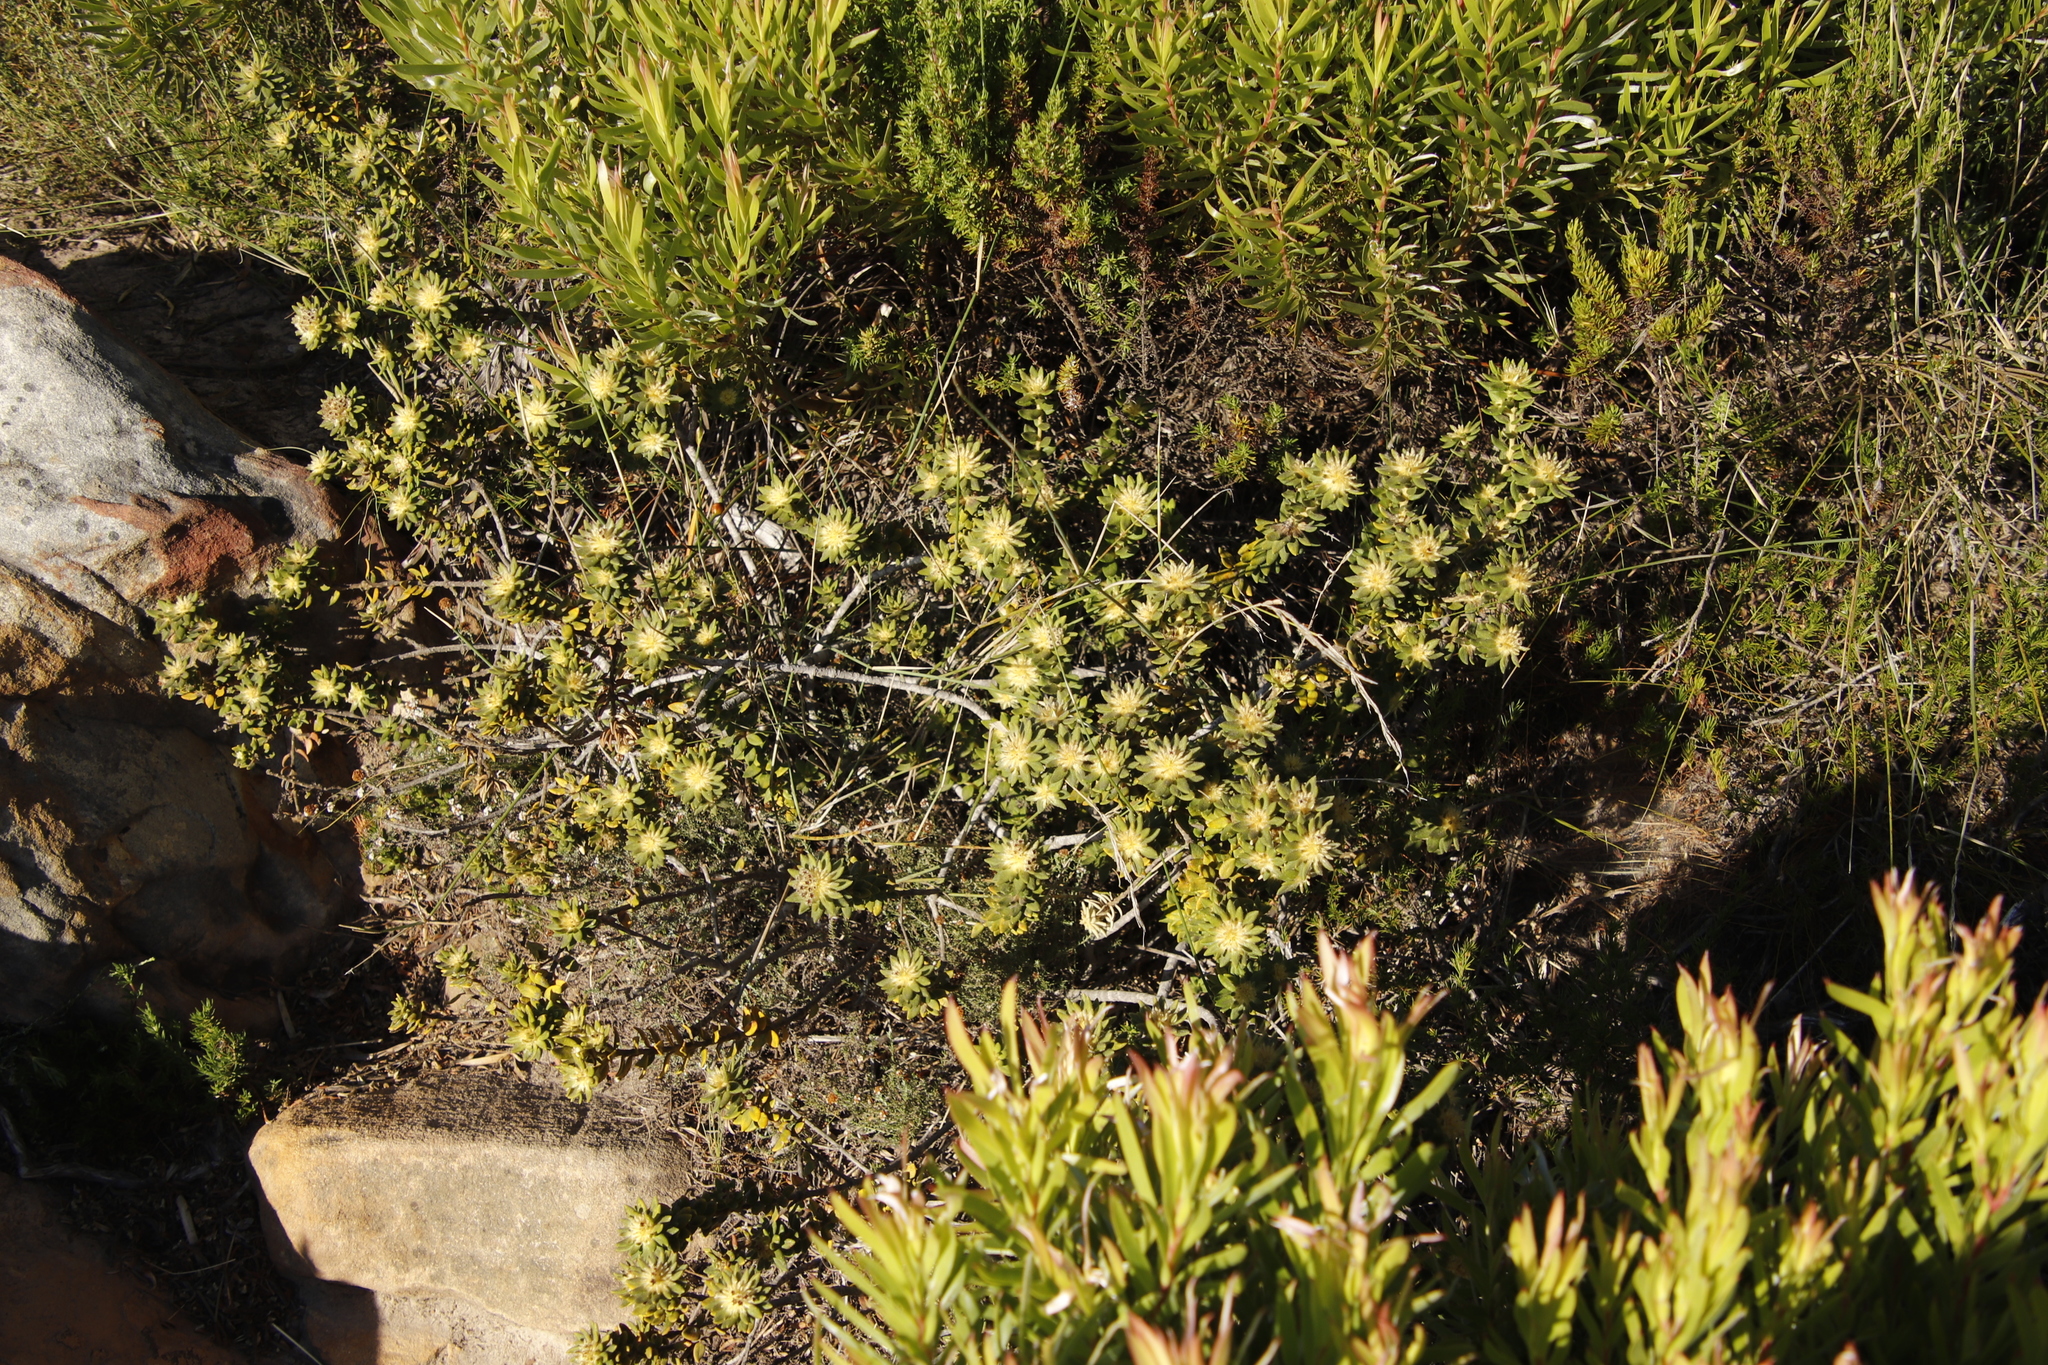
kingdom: Plantae
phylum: Tracheophyta
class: Magnoliopsida
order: Rosales
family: Rhamnaceae
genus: Phylica
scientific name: Phylica dioica
